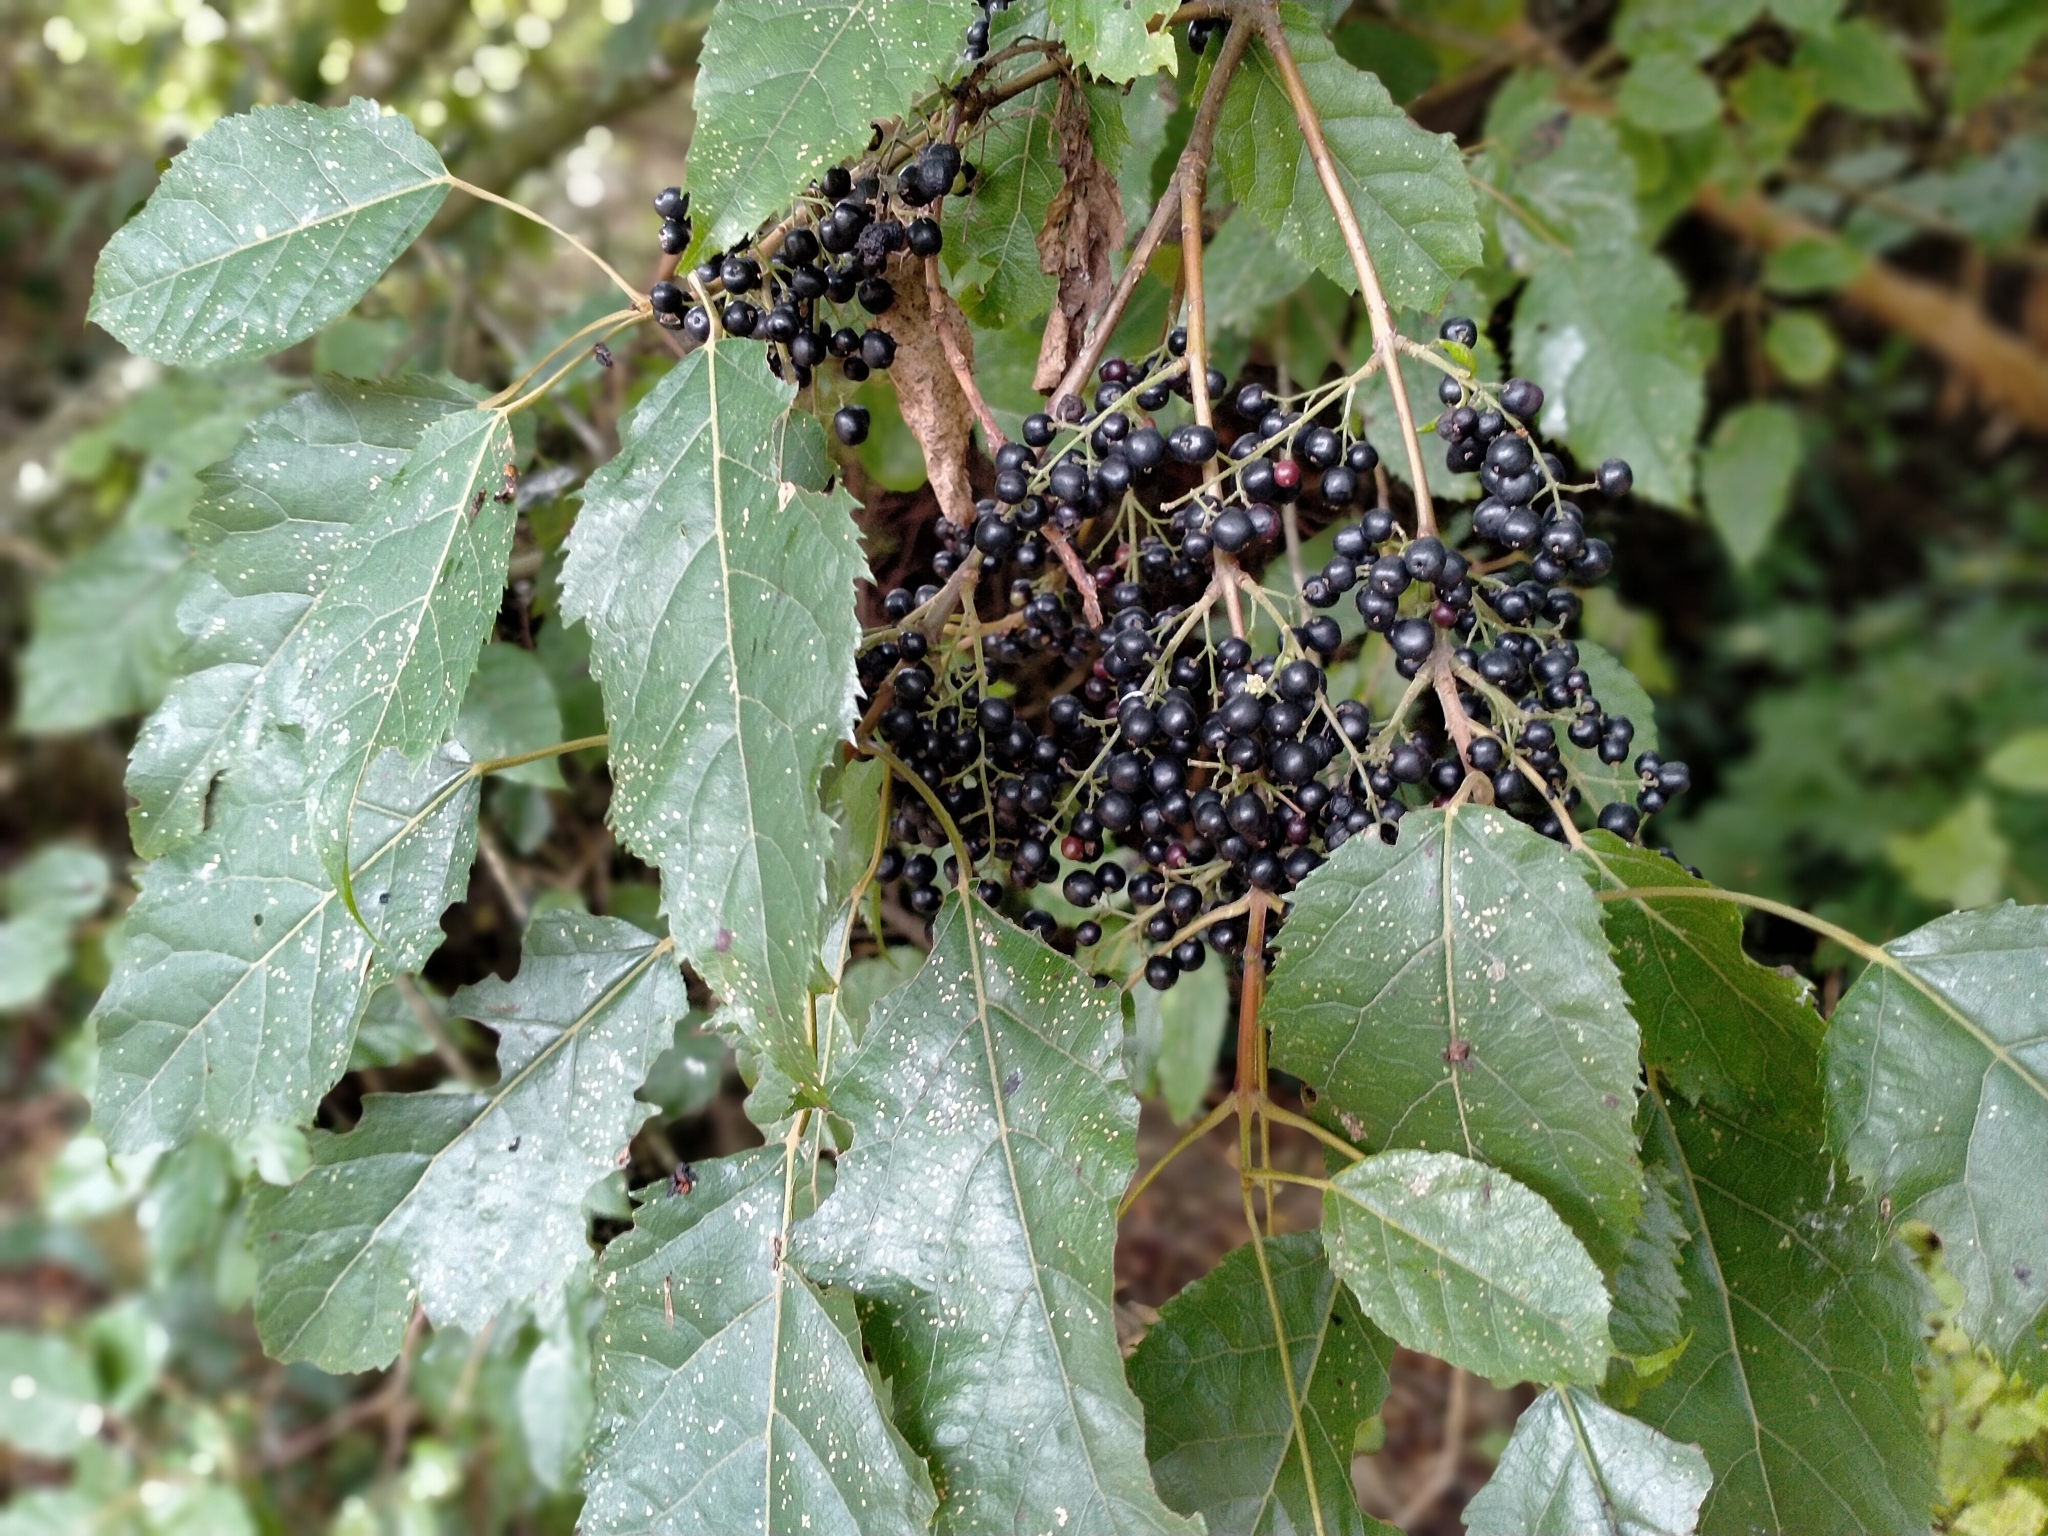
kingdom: Plantae
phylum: Tracheophyta
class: Magnoliopsida
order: Oxalidales
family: Elaeocarpaceae
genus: Aristotelia
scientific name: Aristotelia serrata
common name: New zealand wineberry
